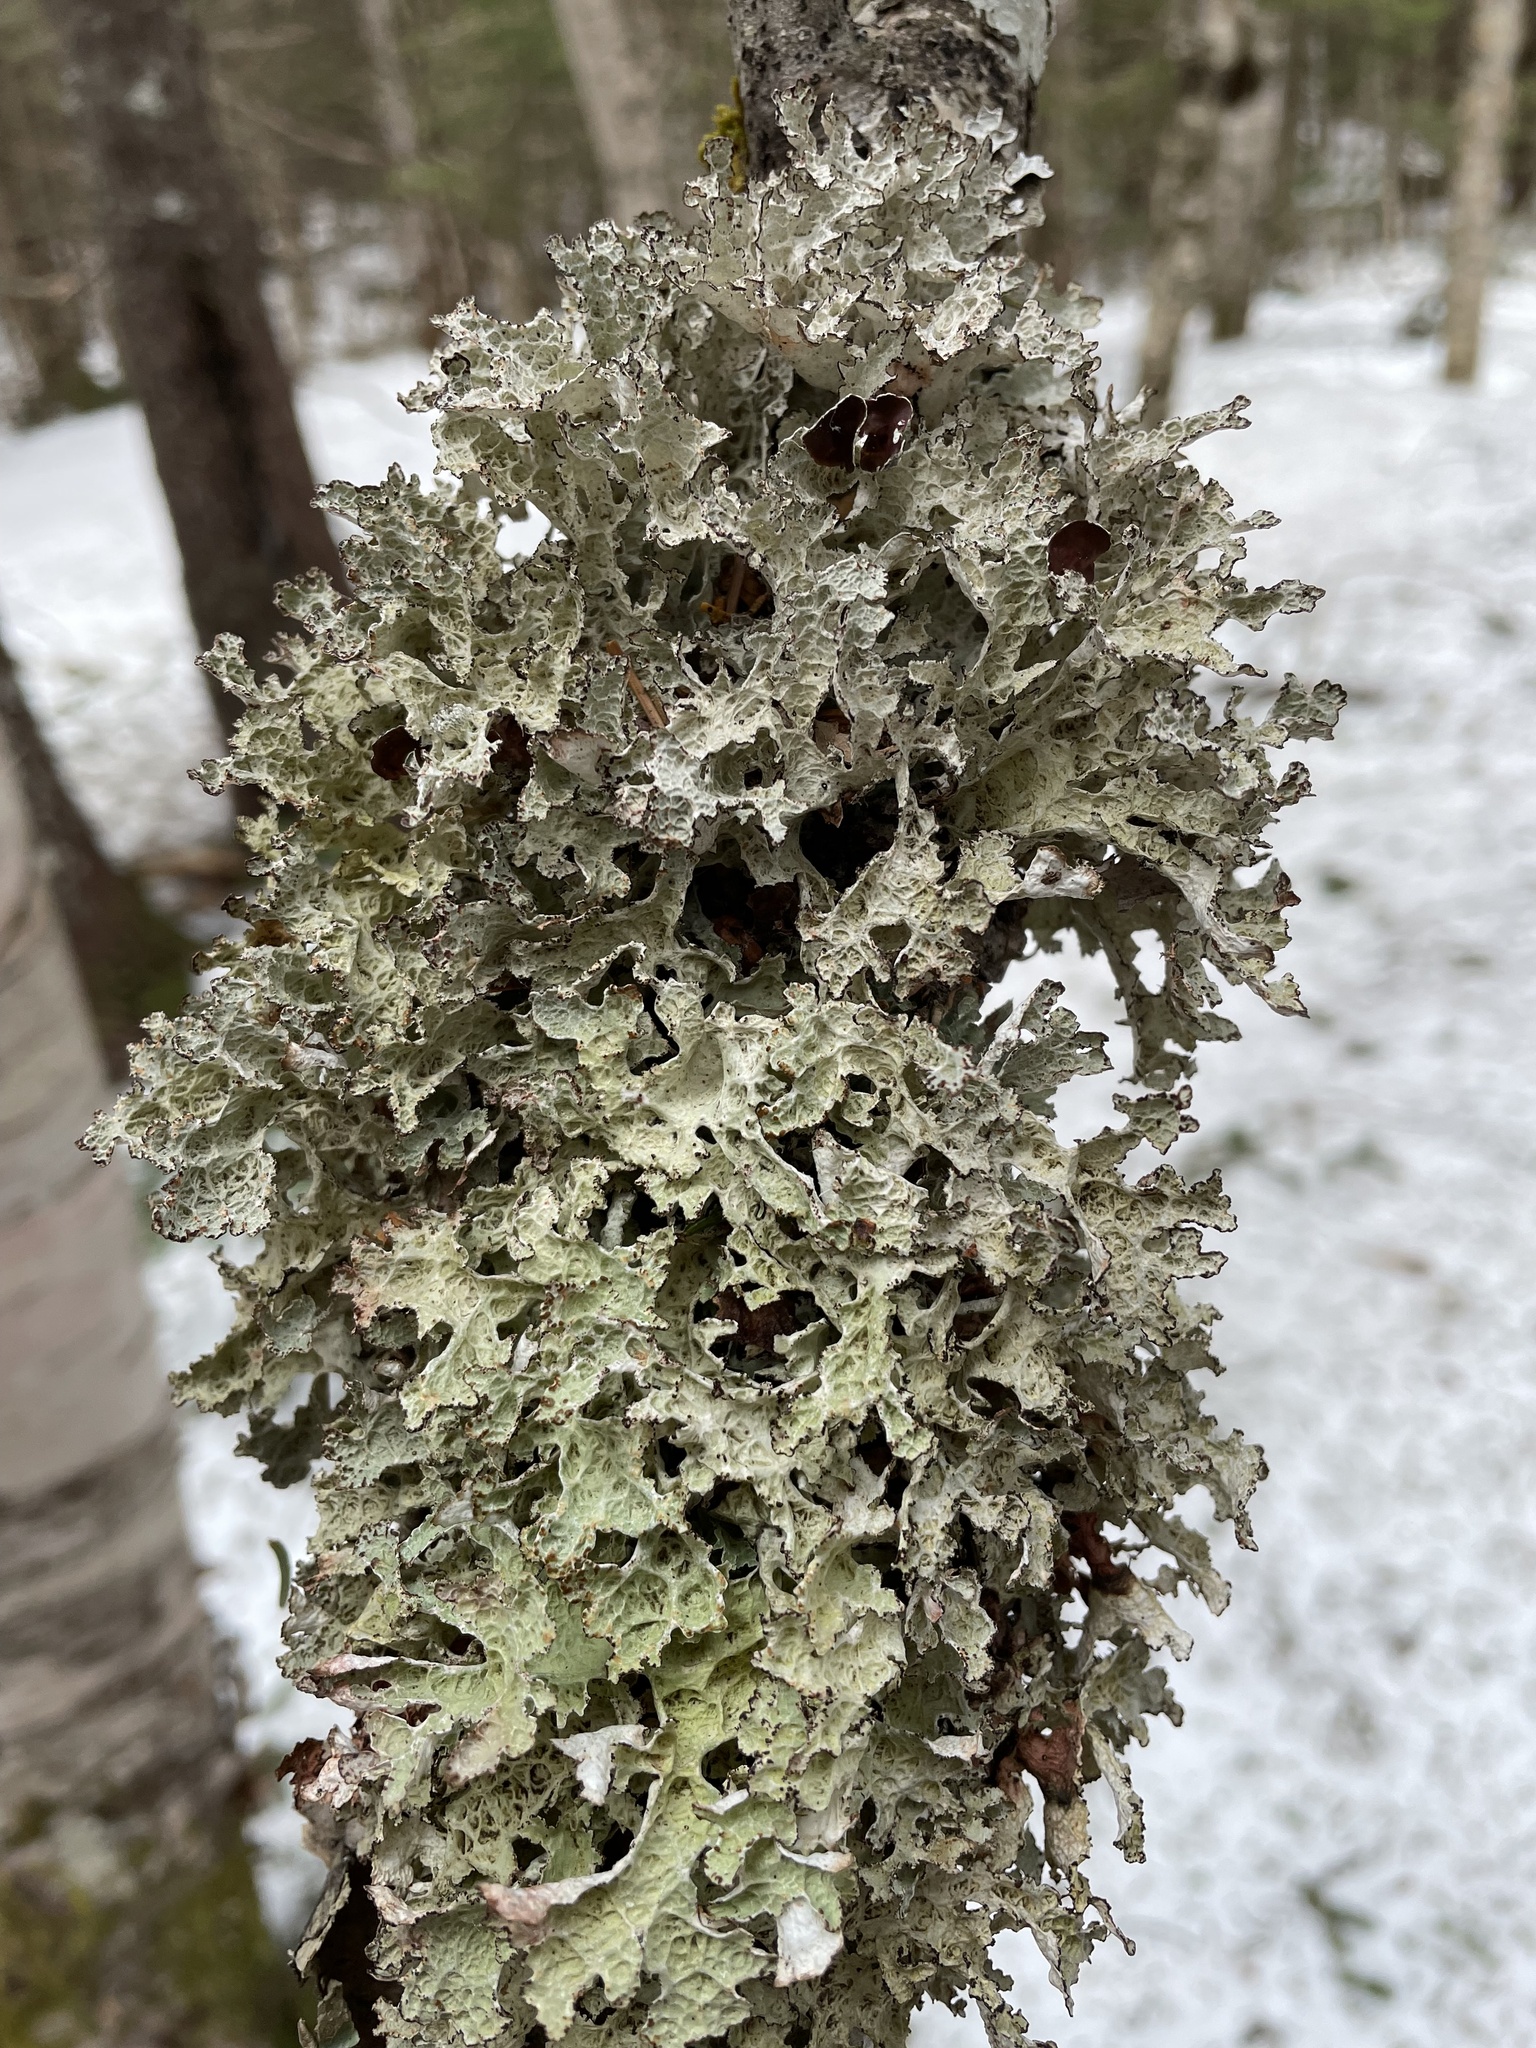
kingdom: Fungi
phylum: Ascomycota
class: Lecanoromycetes
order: Lecanorales
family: Parmeliaceae
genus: Platismatia
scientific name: Platismatia tuckermanii
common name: Crumpled rag lichen
